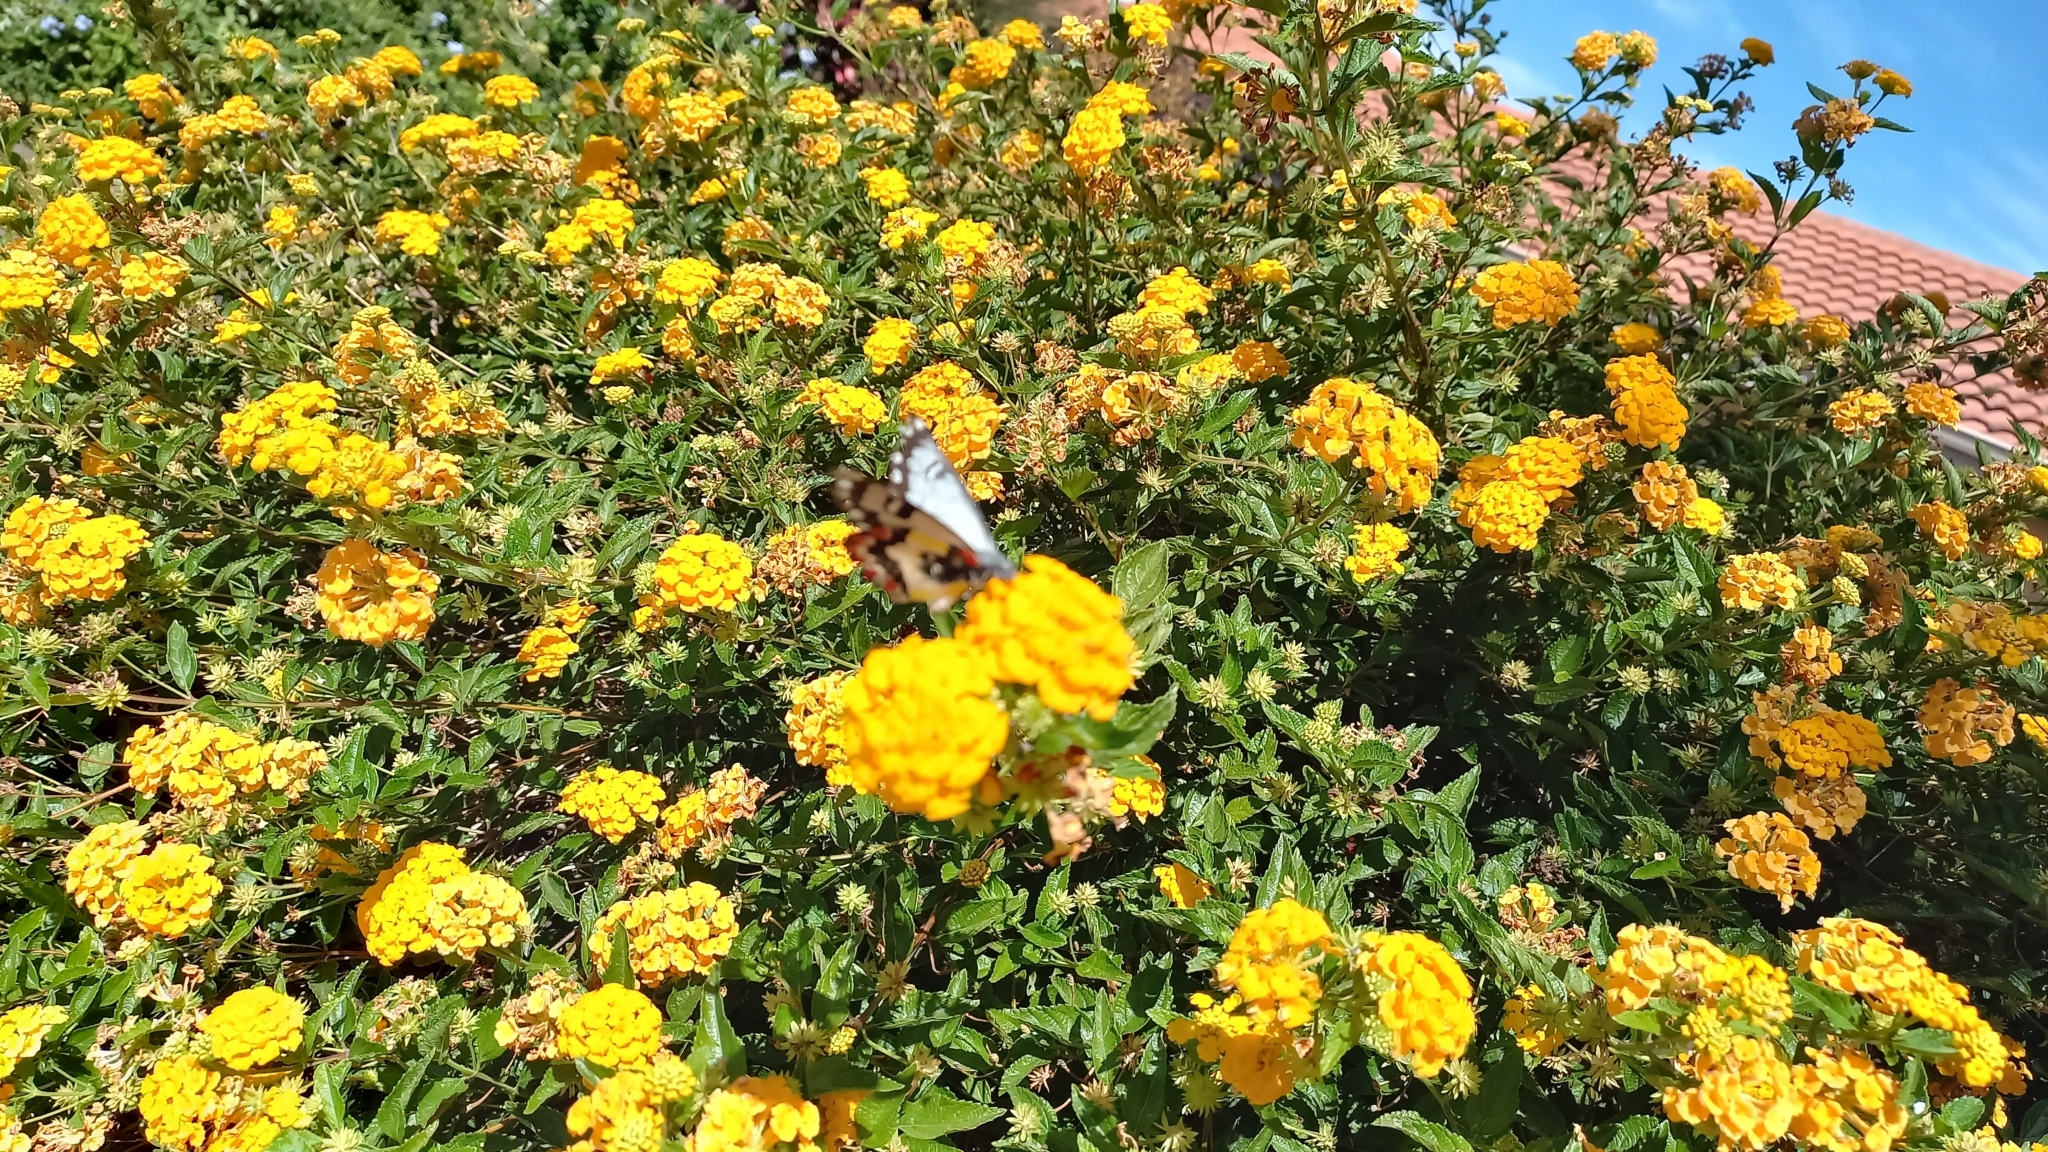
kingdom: Animalia
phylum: Arthropoda
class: Insecta
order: Lepidoptera
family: Pieridae
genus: Delias
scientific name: Delias aganippe
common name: Red-spotted jezebel
